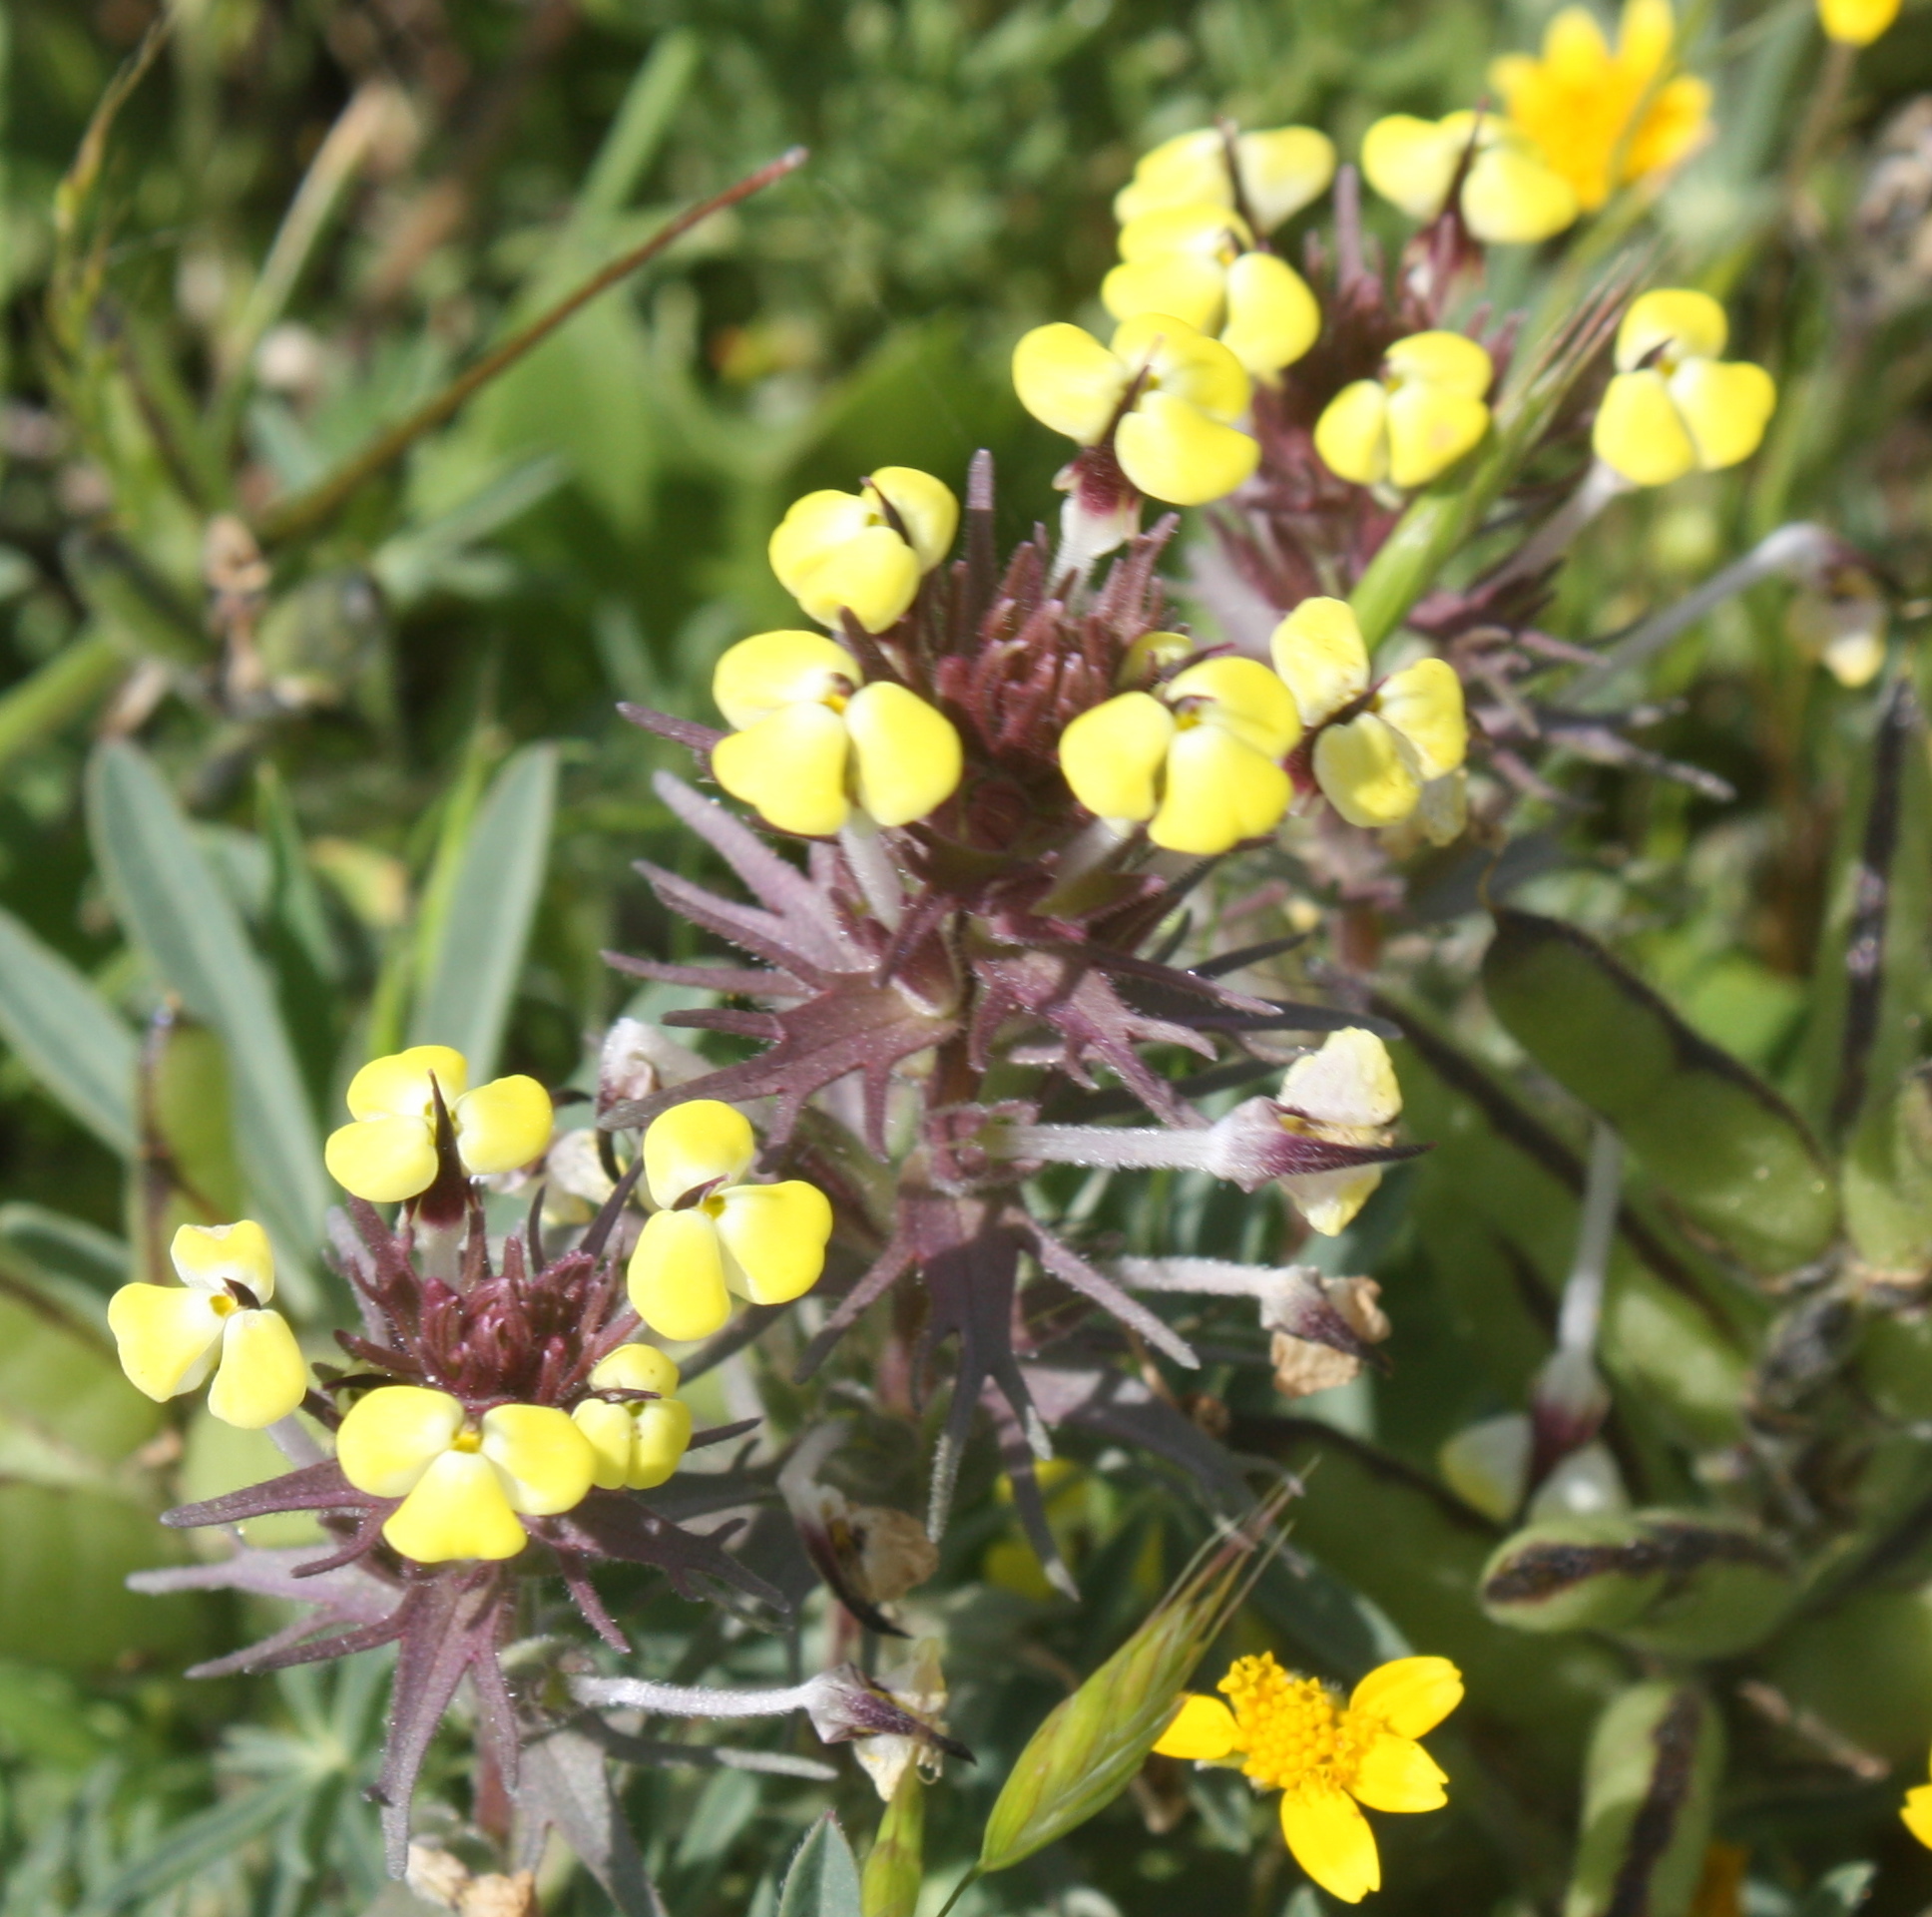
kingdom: Plantae
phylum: Tracheophyta
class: Magnoliopsida
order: Lamiales
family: Orobanchaceae
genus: Triphysaria
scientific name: Triphysaria eriantha
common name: Johnny-tuck
